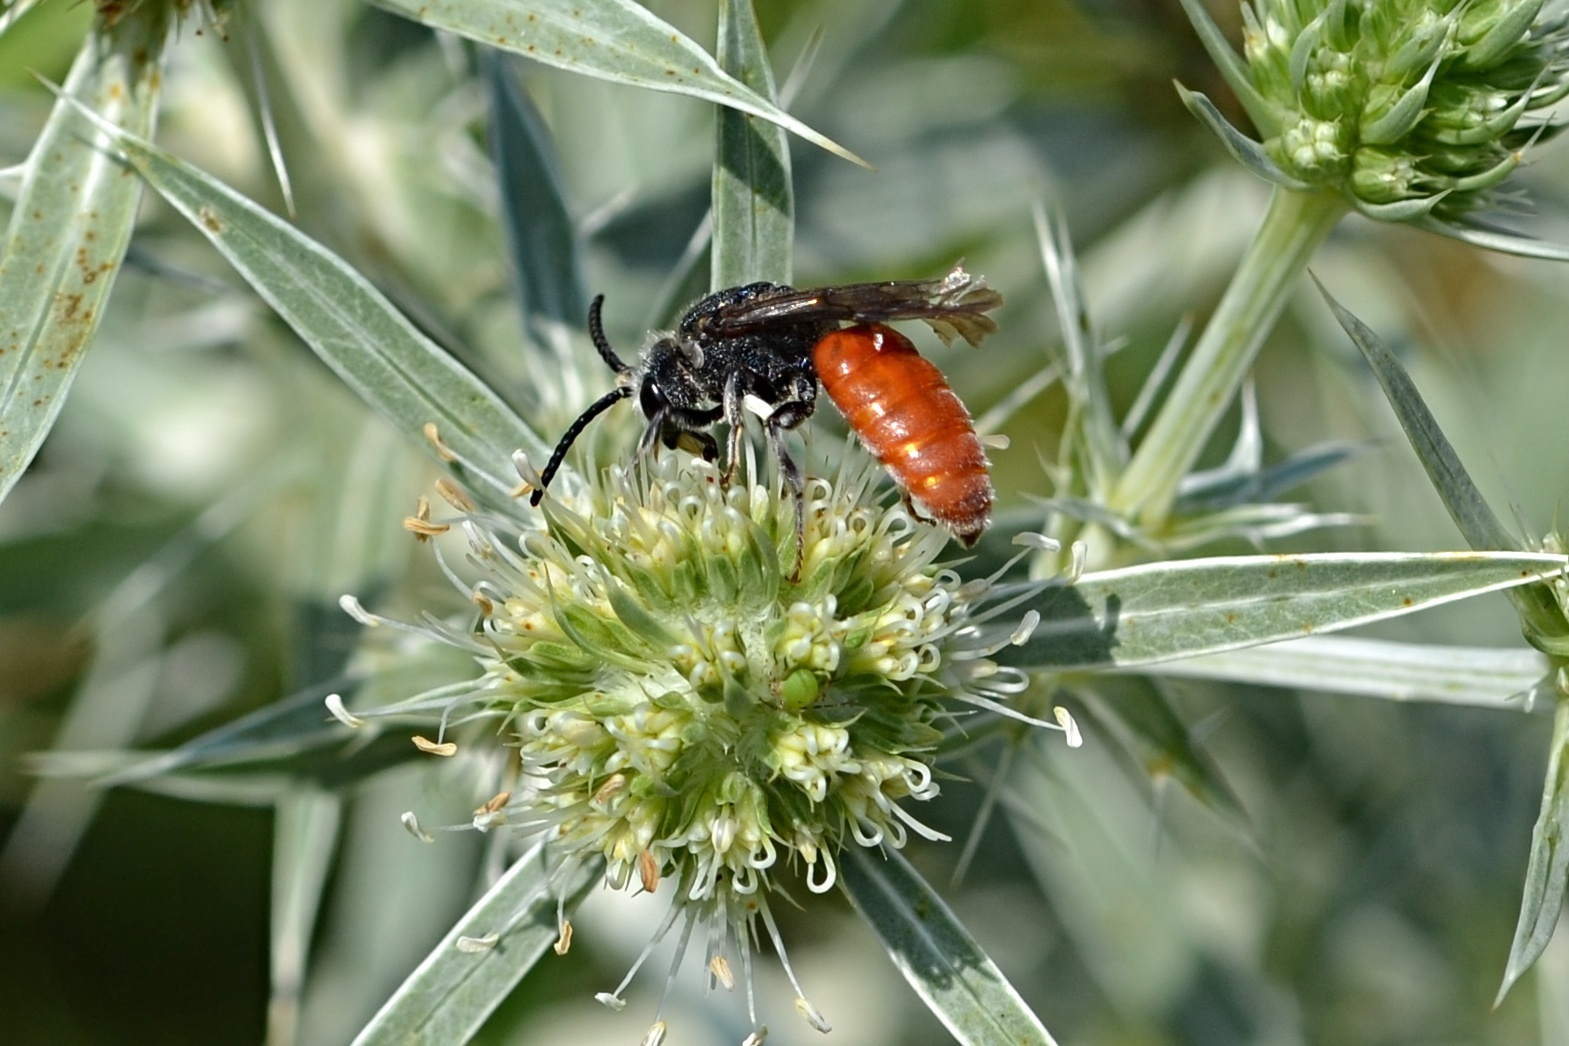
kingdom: Animalia
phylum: Arthropoda
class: Insecta
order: Hymenoptera
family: Halictidae
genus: Sphecodes
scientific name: Sphecodes albilabris
